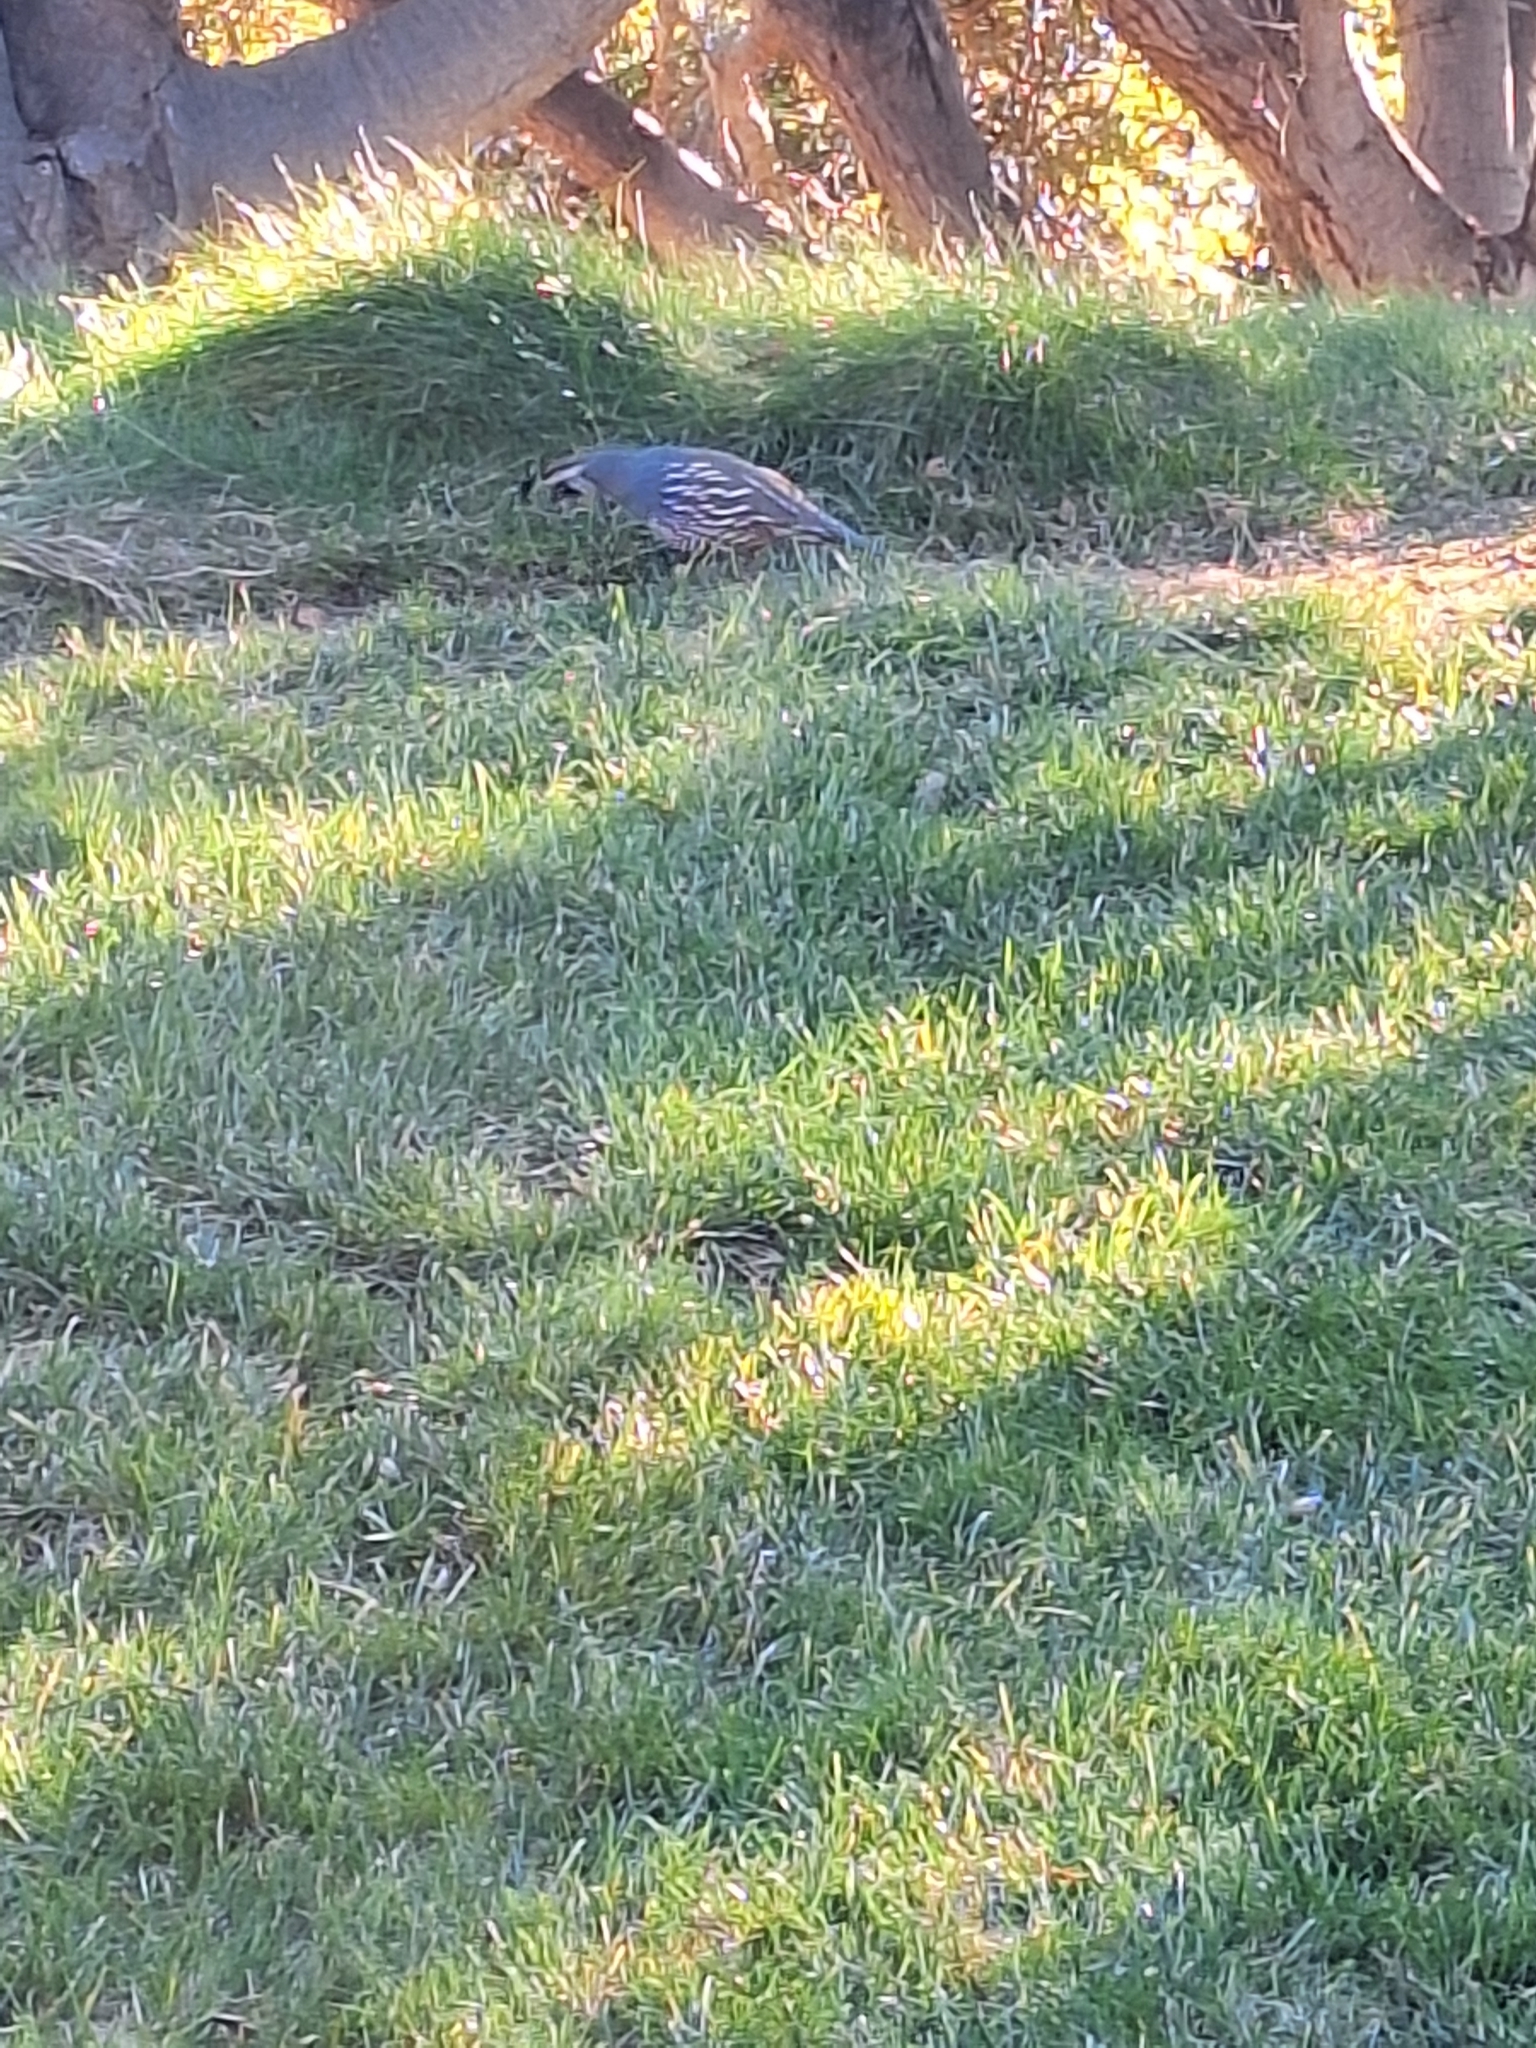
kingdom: Animalia
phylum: Chordata
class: Aves
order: Galliformes
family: Odontophoridae
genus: Callipepla
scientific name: Callipepla californica
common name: California quail
